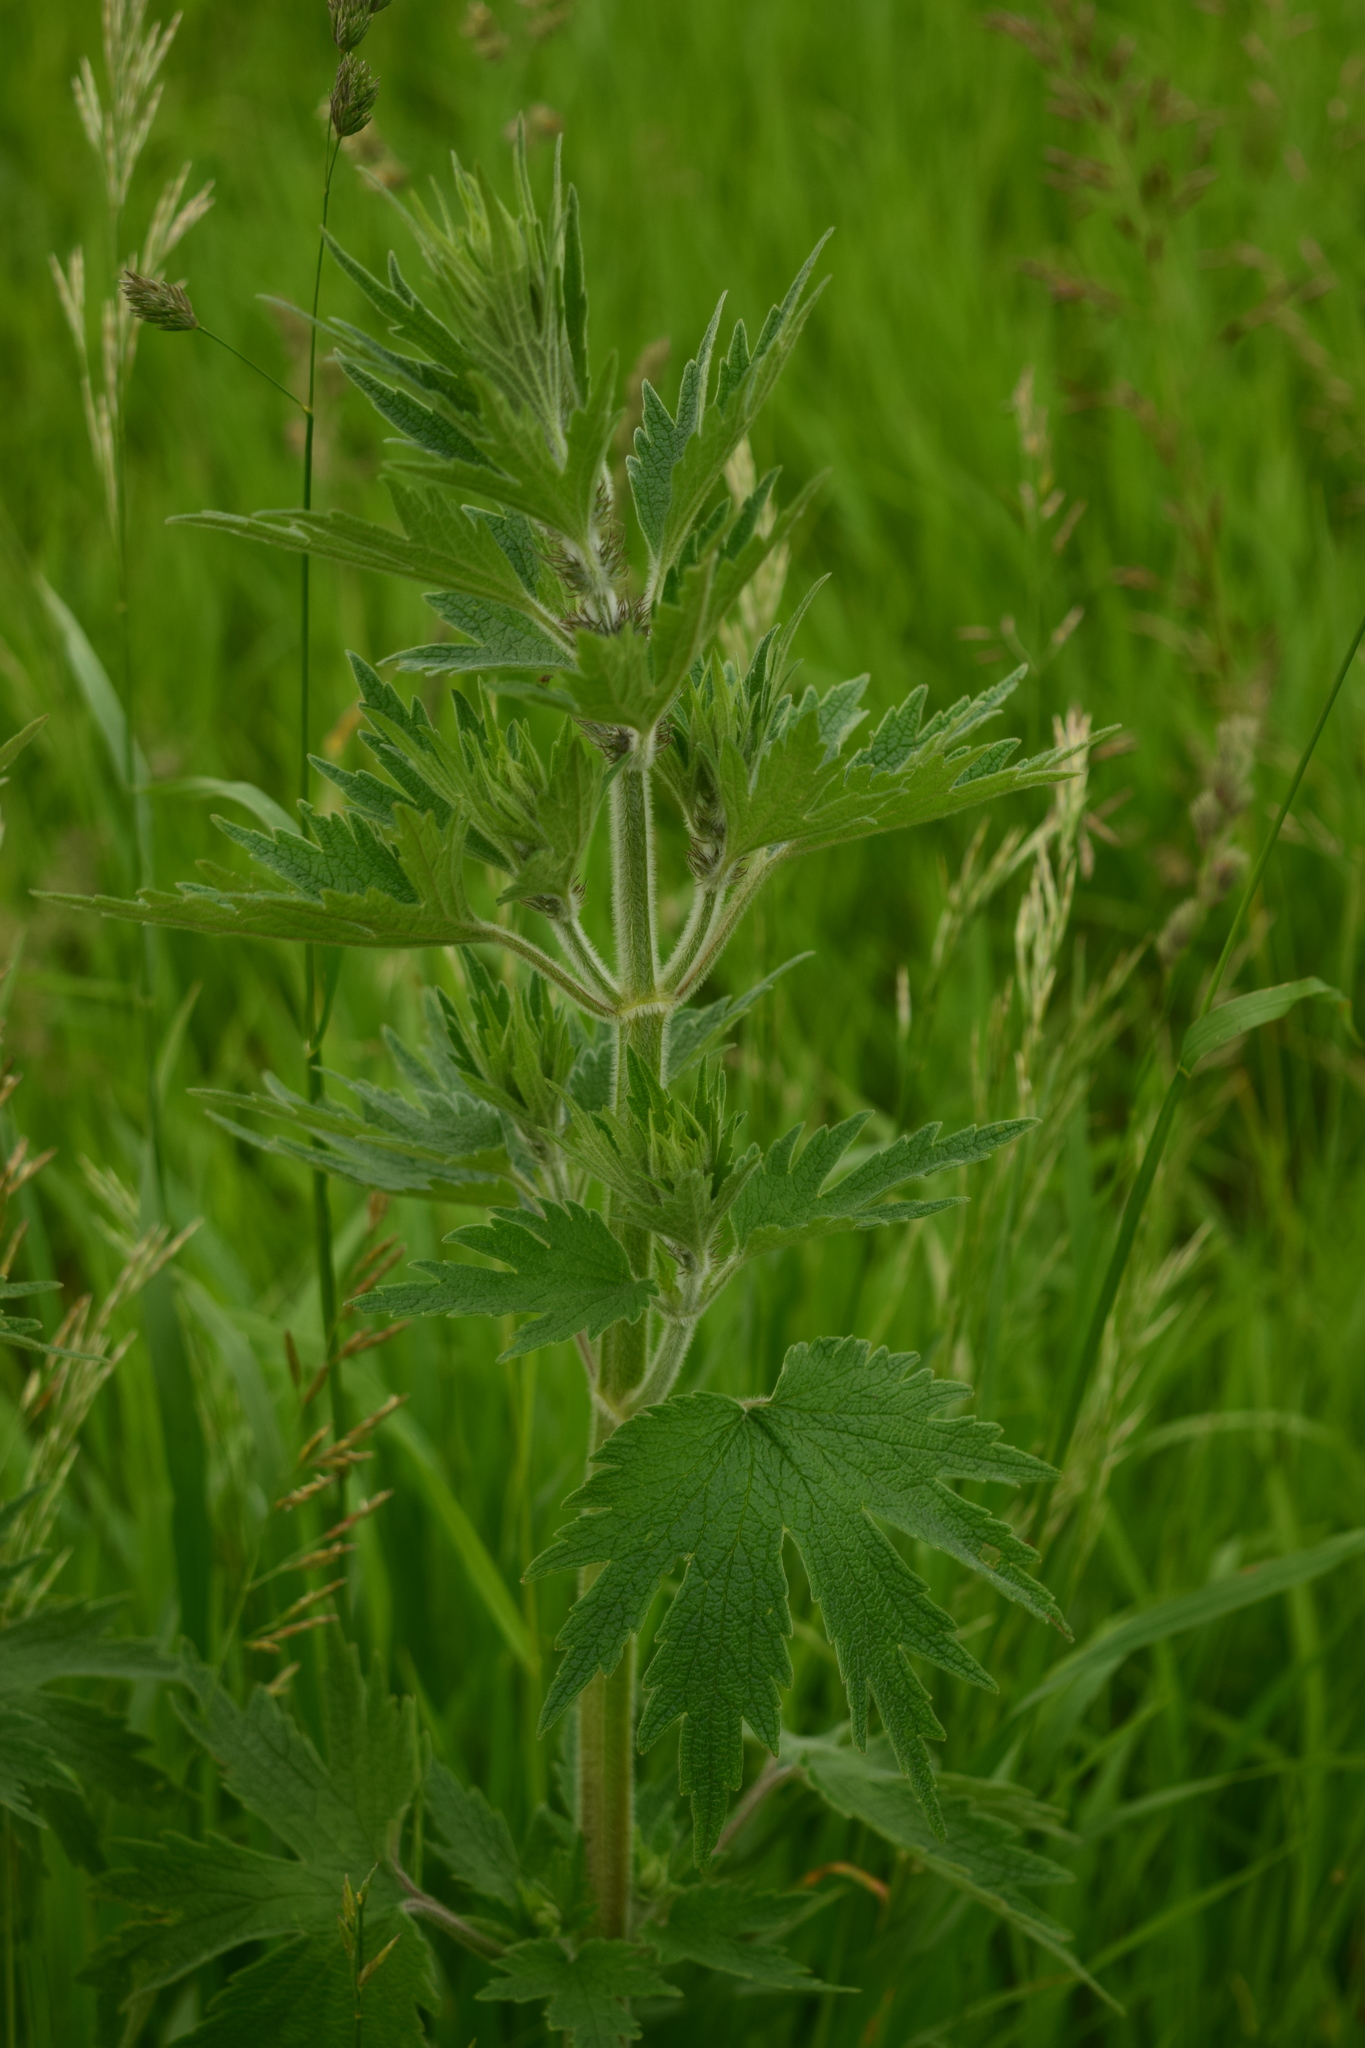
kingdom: Plantae
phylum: Tracheophyta
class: Magnoliopsida
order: Lamiales
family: Lamiaceae
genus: Leonurus
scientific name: Leonurus quinquelobatus
